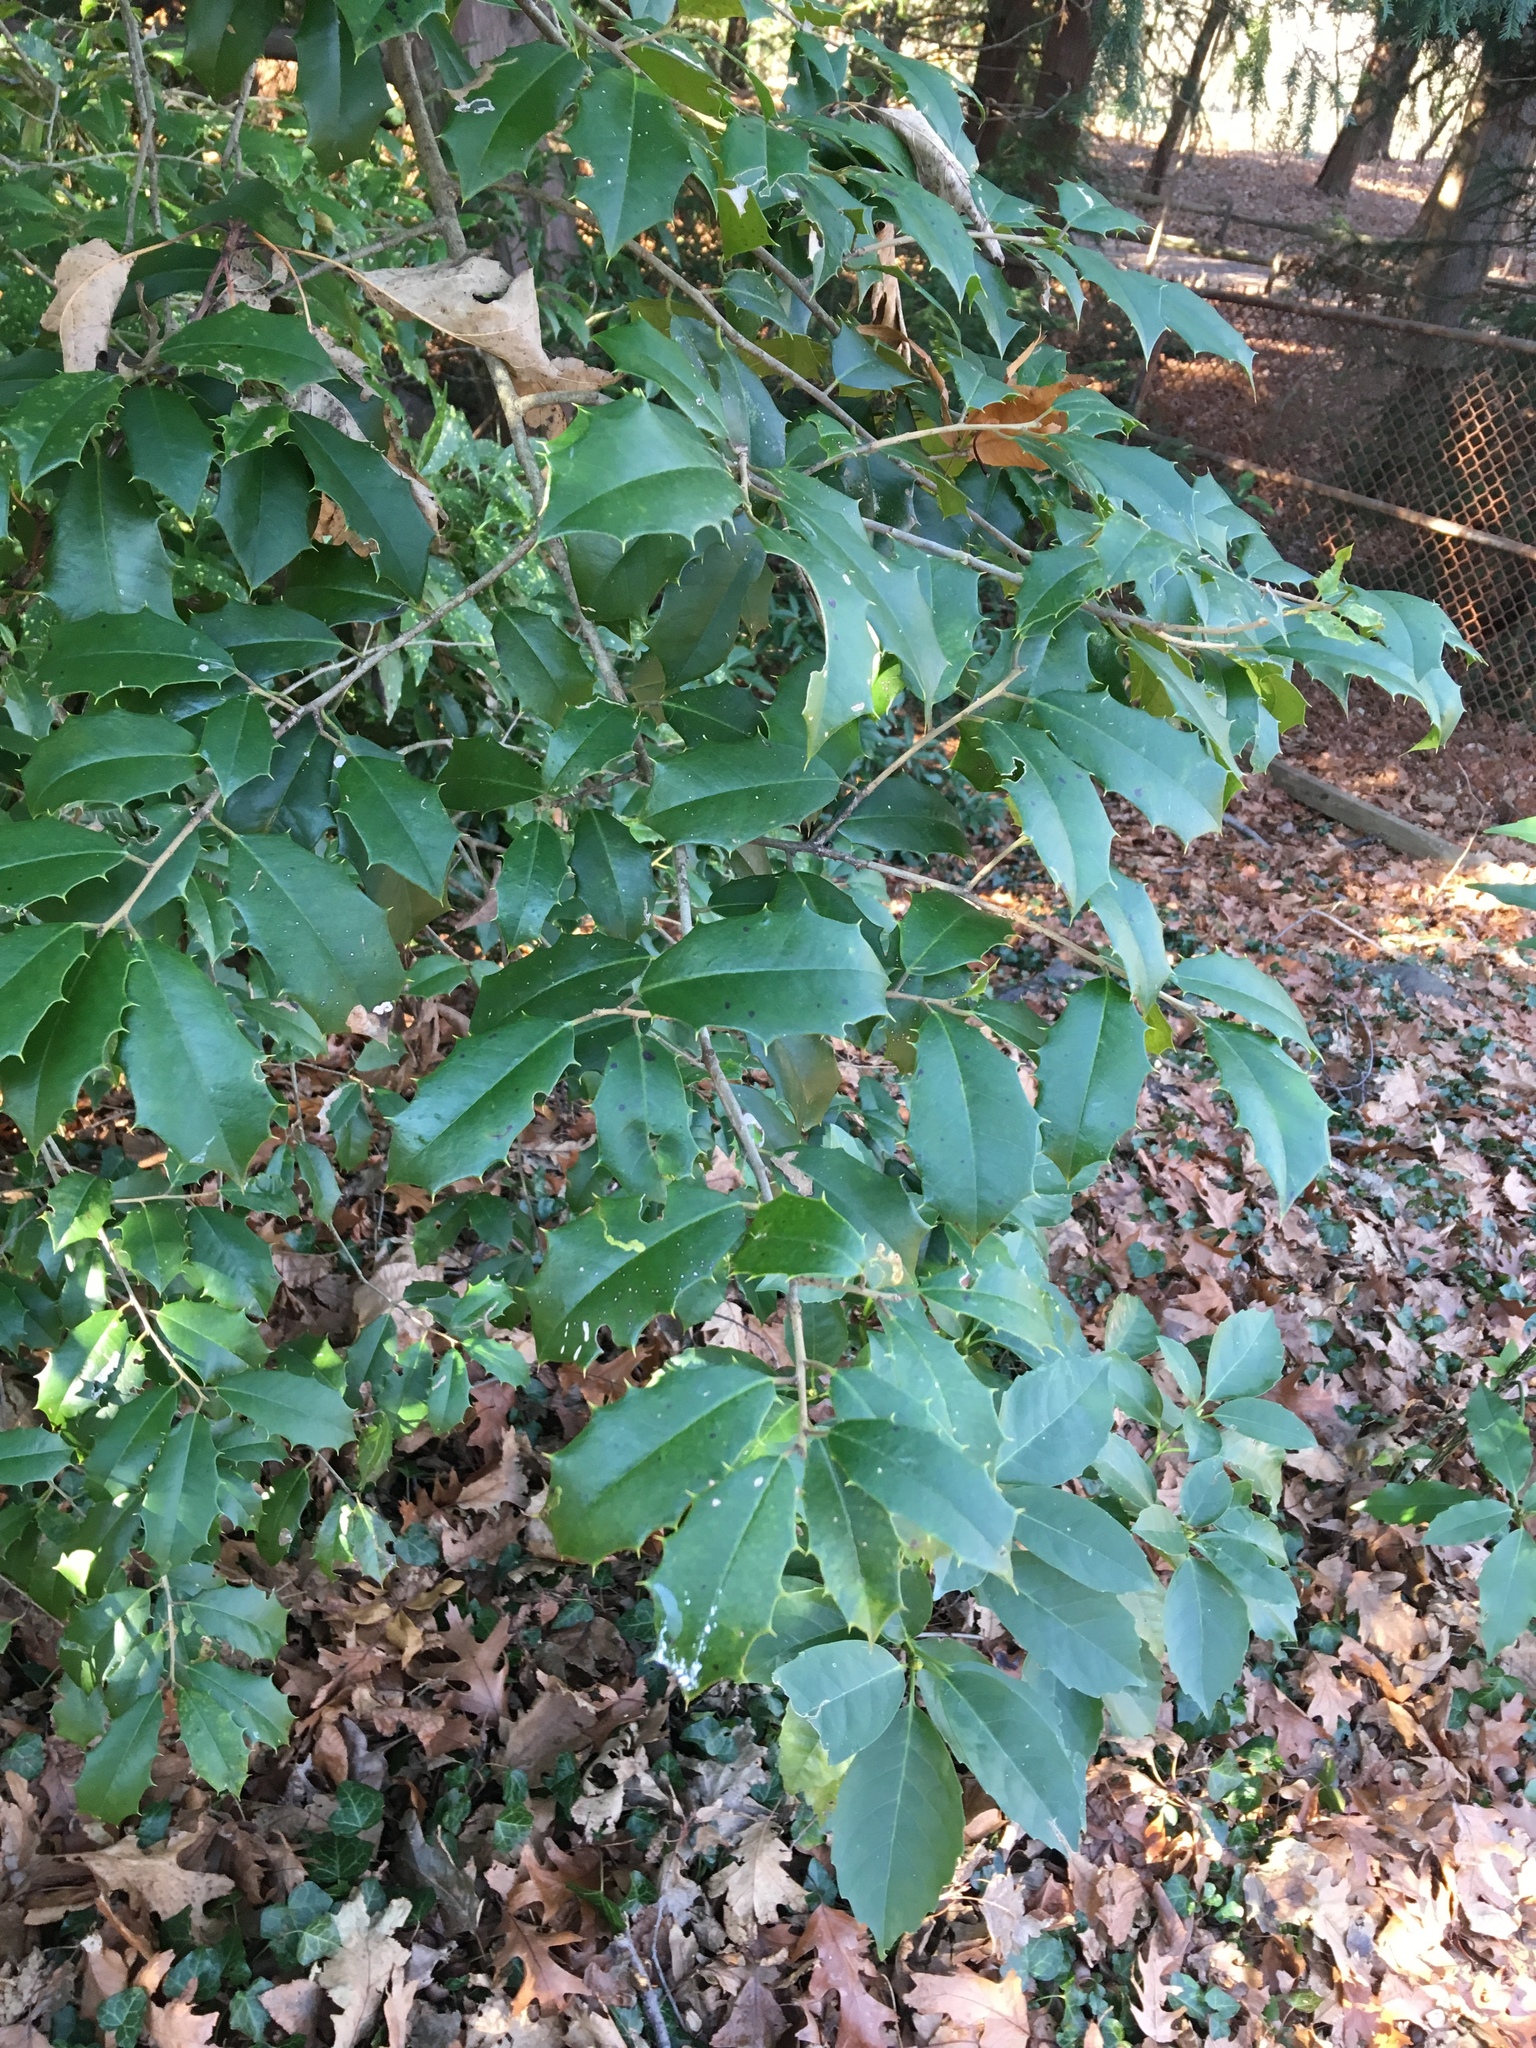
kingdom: Plantae
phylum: Tracheophyta
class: Magnoliopsida
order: Aquifoliales
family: Aquifoliaceae
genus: Ilex
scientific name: Ilex opaca
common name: American holly
